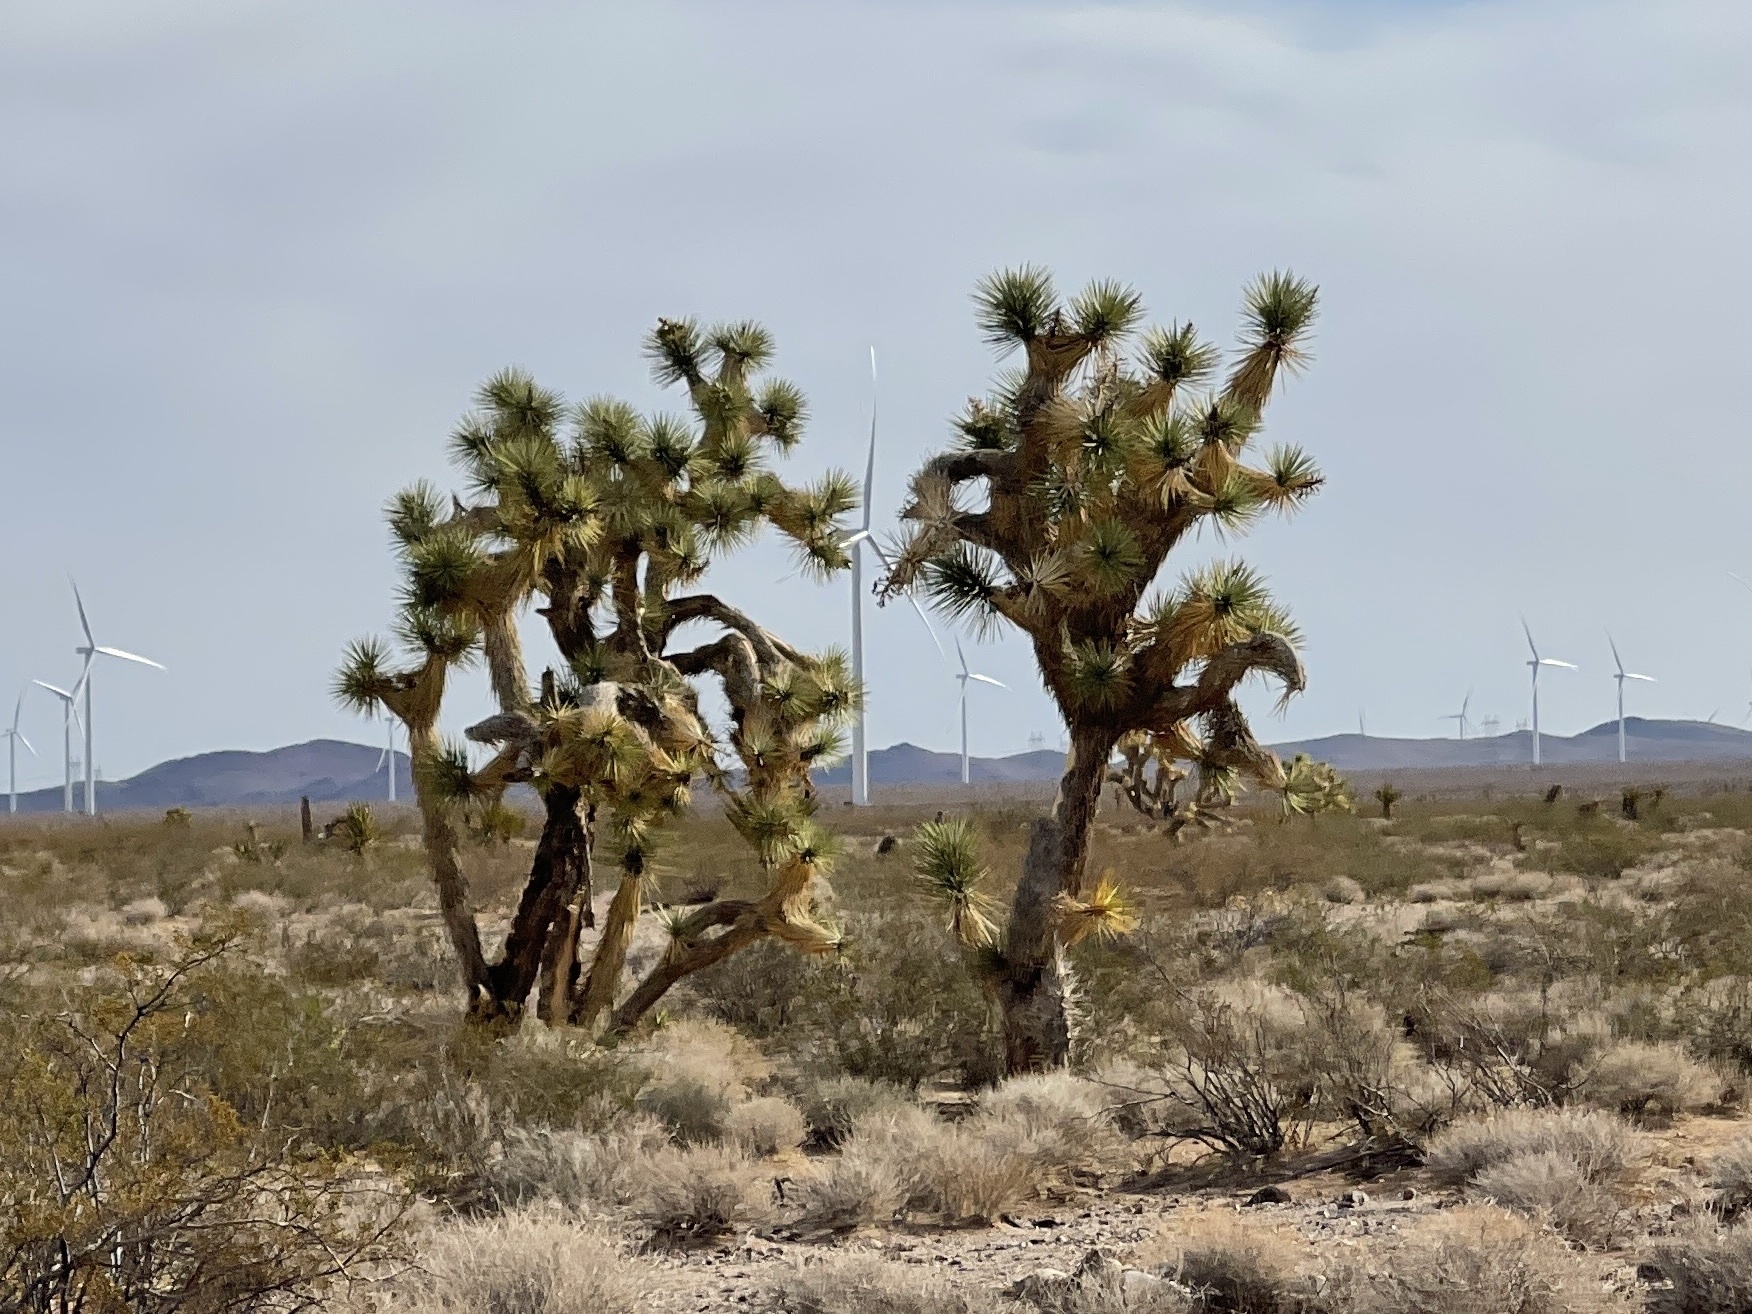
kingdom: Plantae
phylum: Tracheophyta
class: Liliopsida
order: Asparagales
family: Asparagaceae
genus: Yucca
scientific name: Yucca brevifolia
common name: Joshua tree
